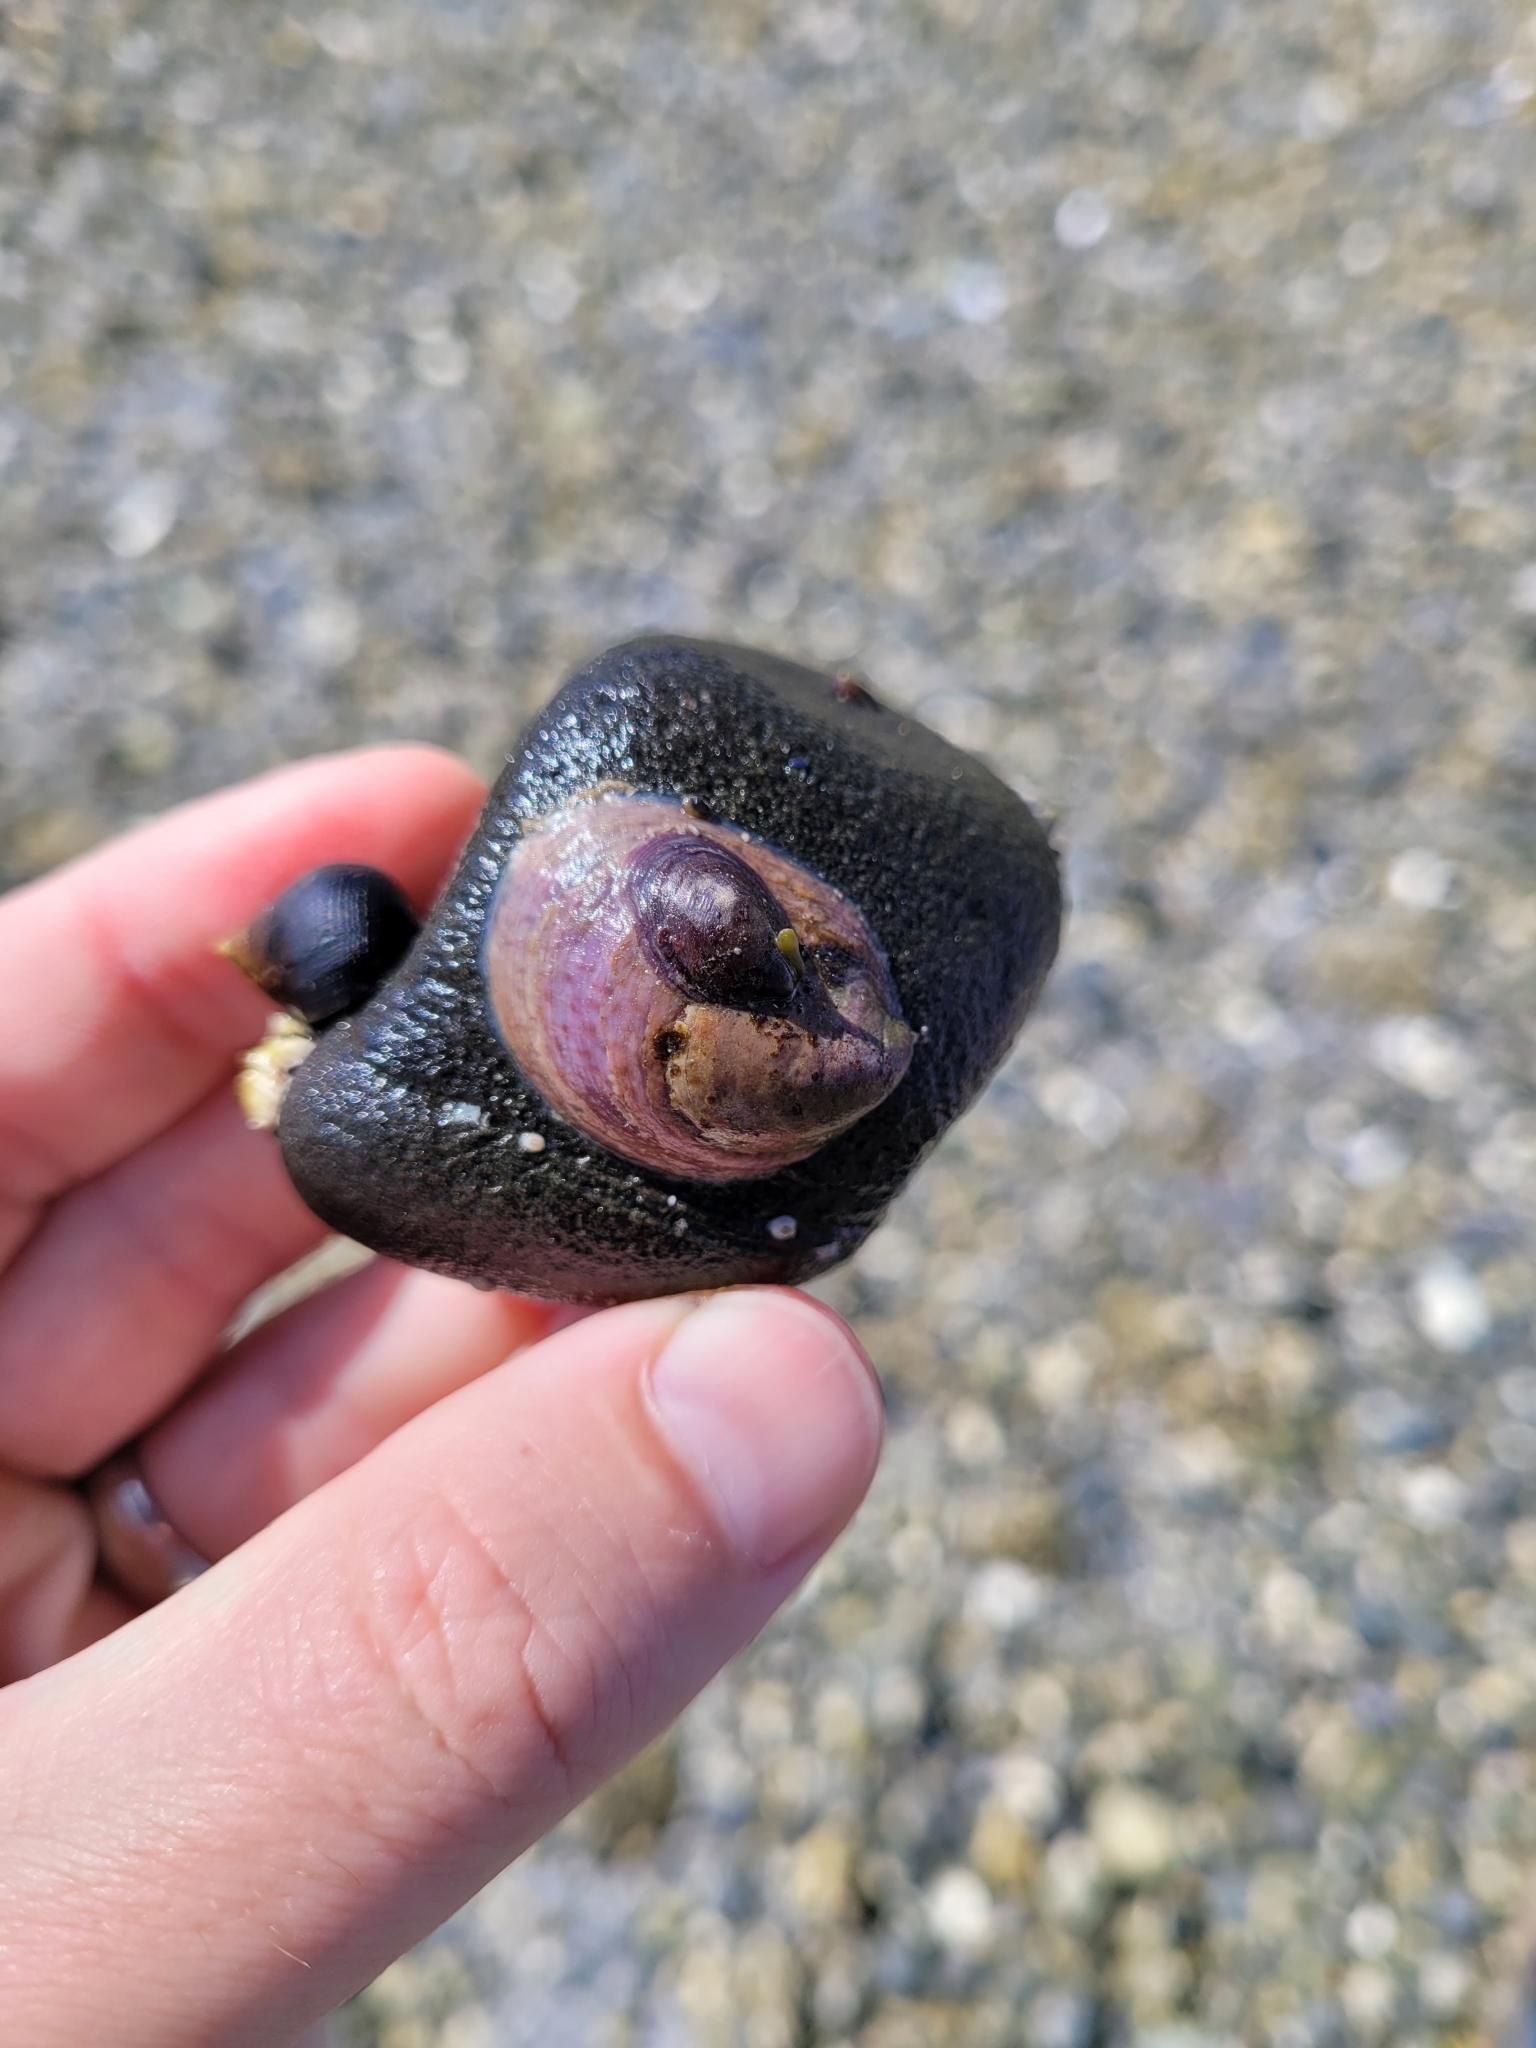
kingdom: Animalia
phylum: Mollusca
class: Gastropoda
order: Littorinimorpha
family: Calyptraeidae
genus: Crepidula
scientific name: Crepidula fornicata
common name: Slipper limpet
